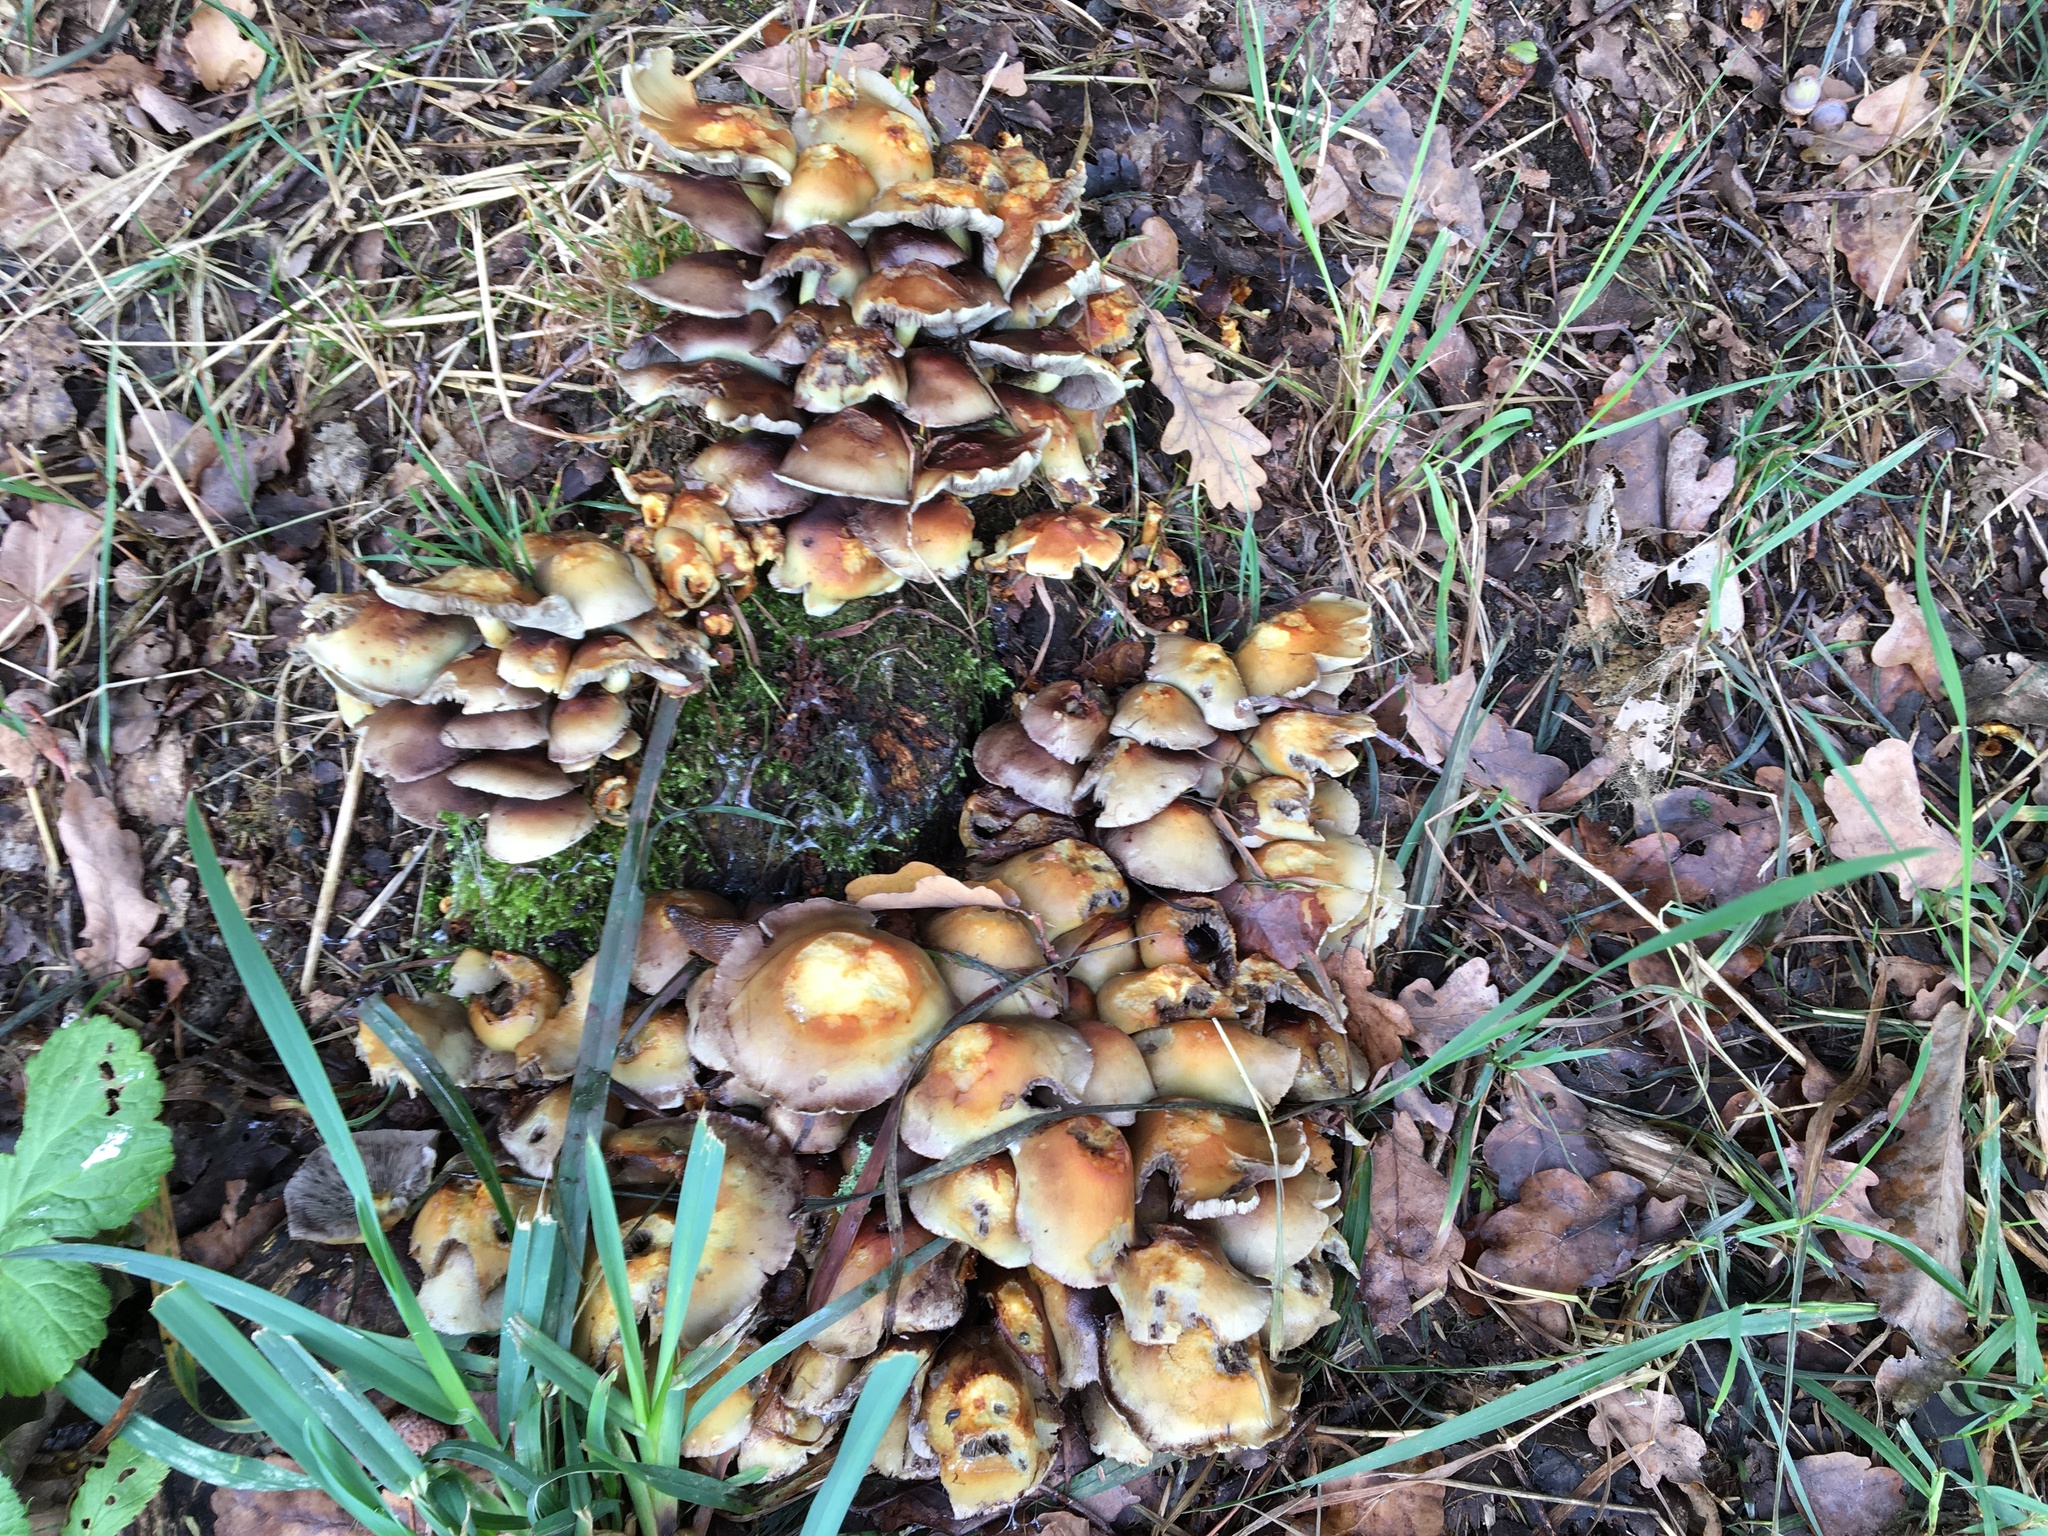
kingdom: Fungi
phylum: Basidiomycota
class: Agaricomycetes
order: Agaricales
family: Strophariaceae
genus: Hypholoma
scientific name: Hypholoma fasciculare
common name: Sulphur tuft
